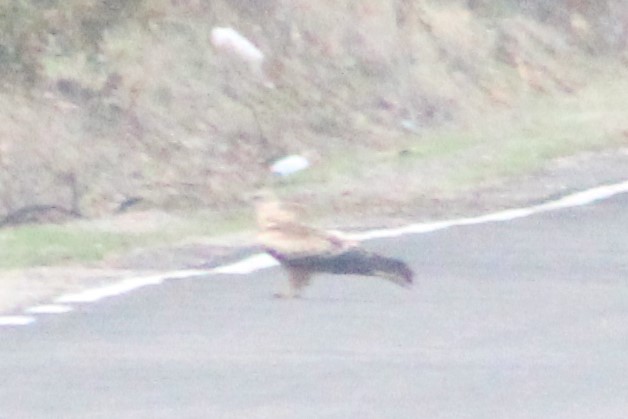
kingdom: Animalia
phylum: Chordata
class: Aves
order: Accipitriformes
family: Accipitridae
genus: Milvus
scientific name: Milvus milvus
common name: Red kite
